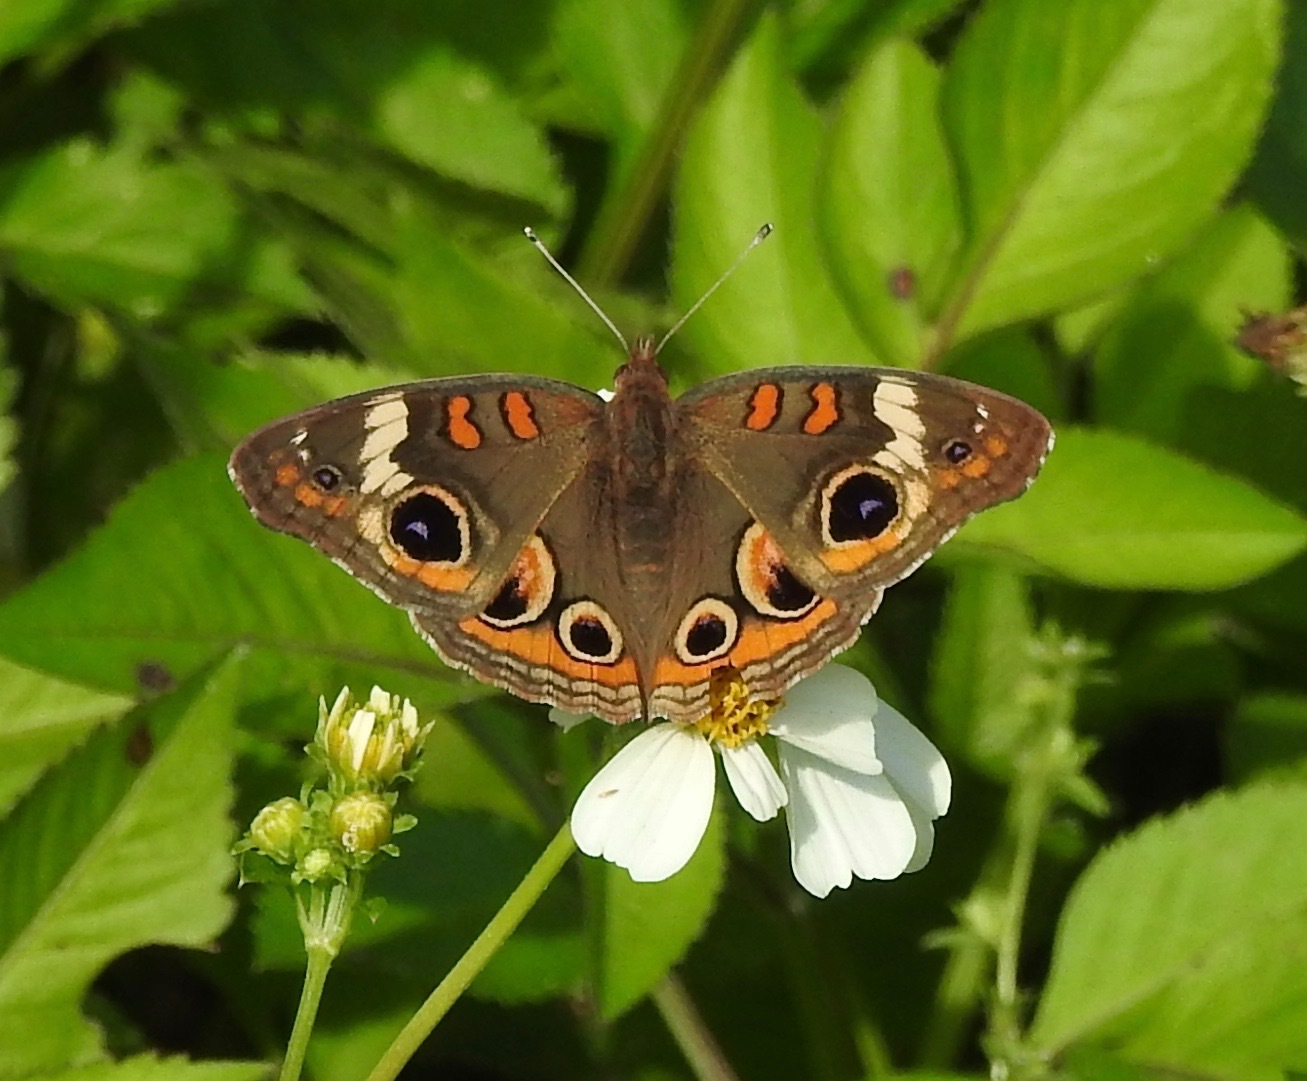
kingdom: Animalia
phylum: Arthropoda
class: Insecta
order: Lepidoptera
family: Nymphalidae
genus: Junonia
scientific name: Junonia coenia
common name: Common buckeye
